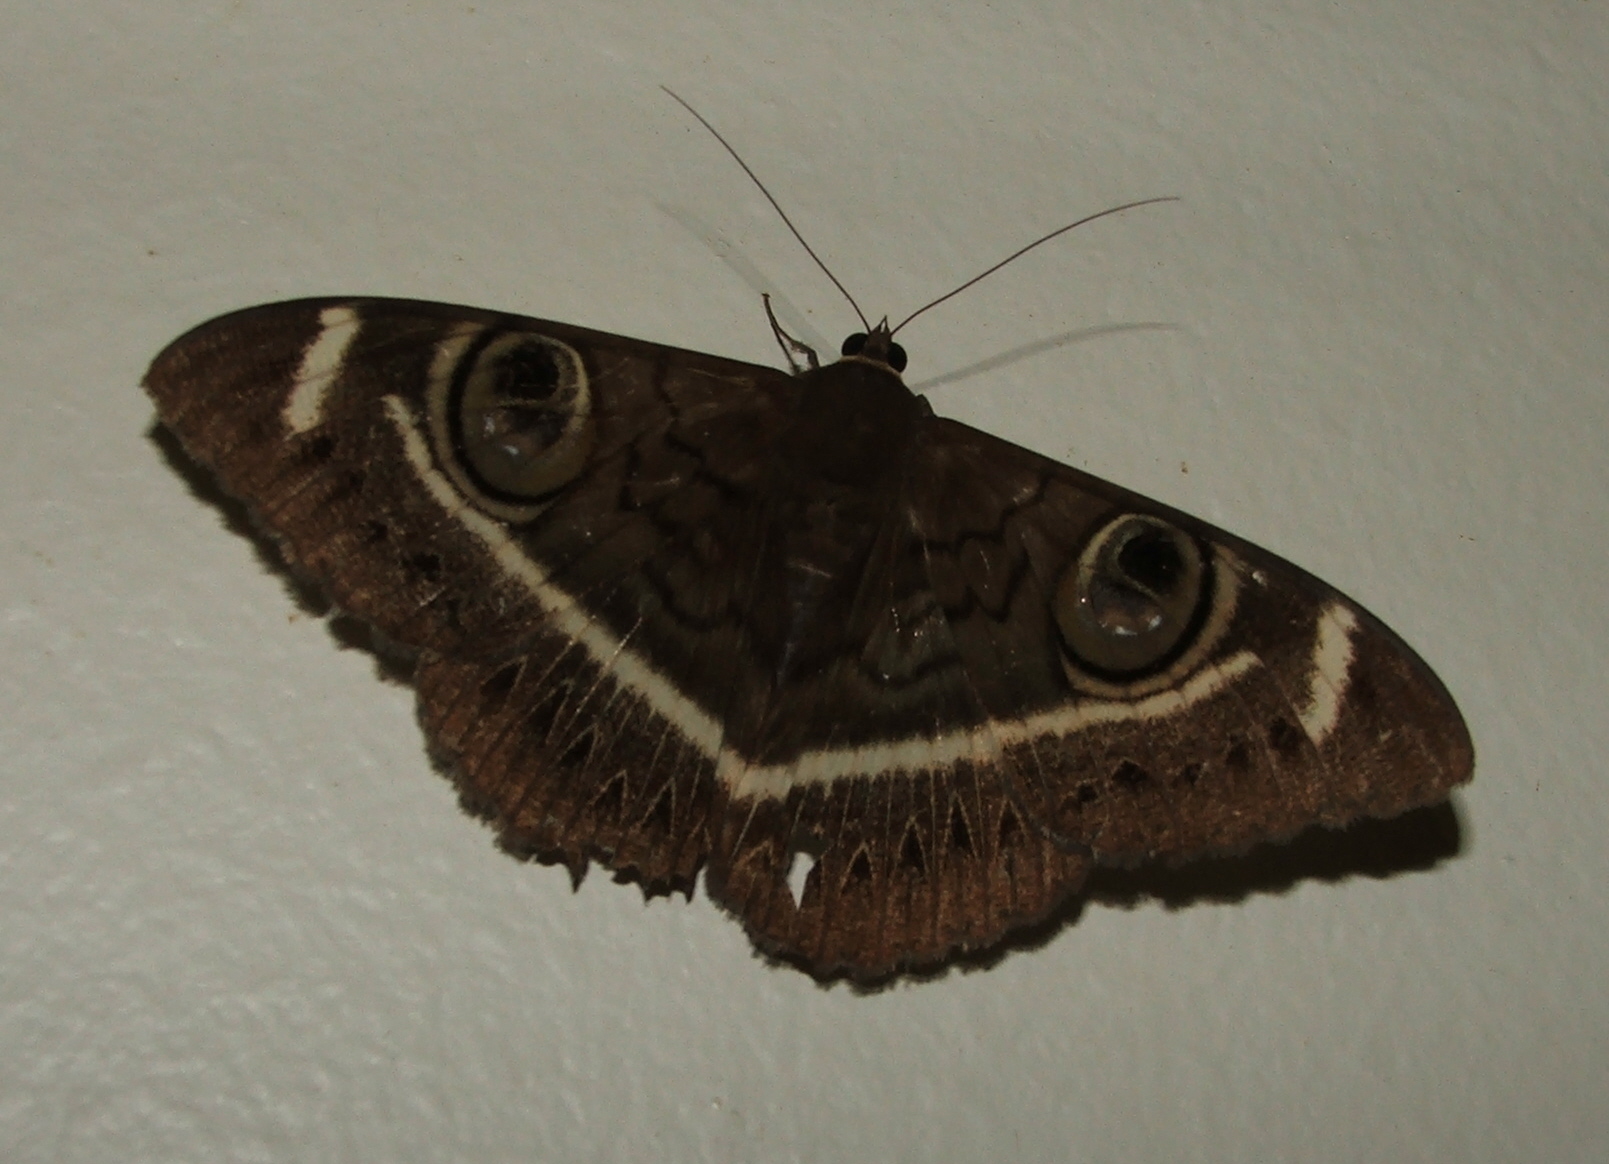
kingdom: Animalia
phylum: Arthropoda
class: Insecta
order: Lepidoptera
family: Erebidae
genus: Cyligramma
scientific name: Cyligramma latona
